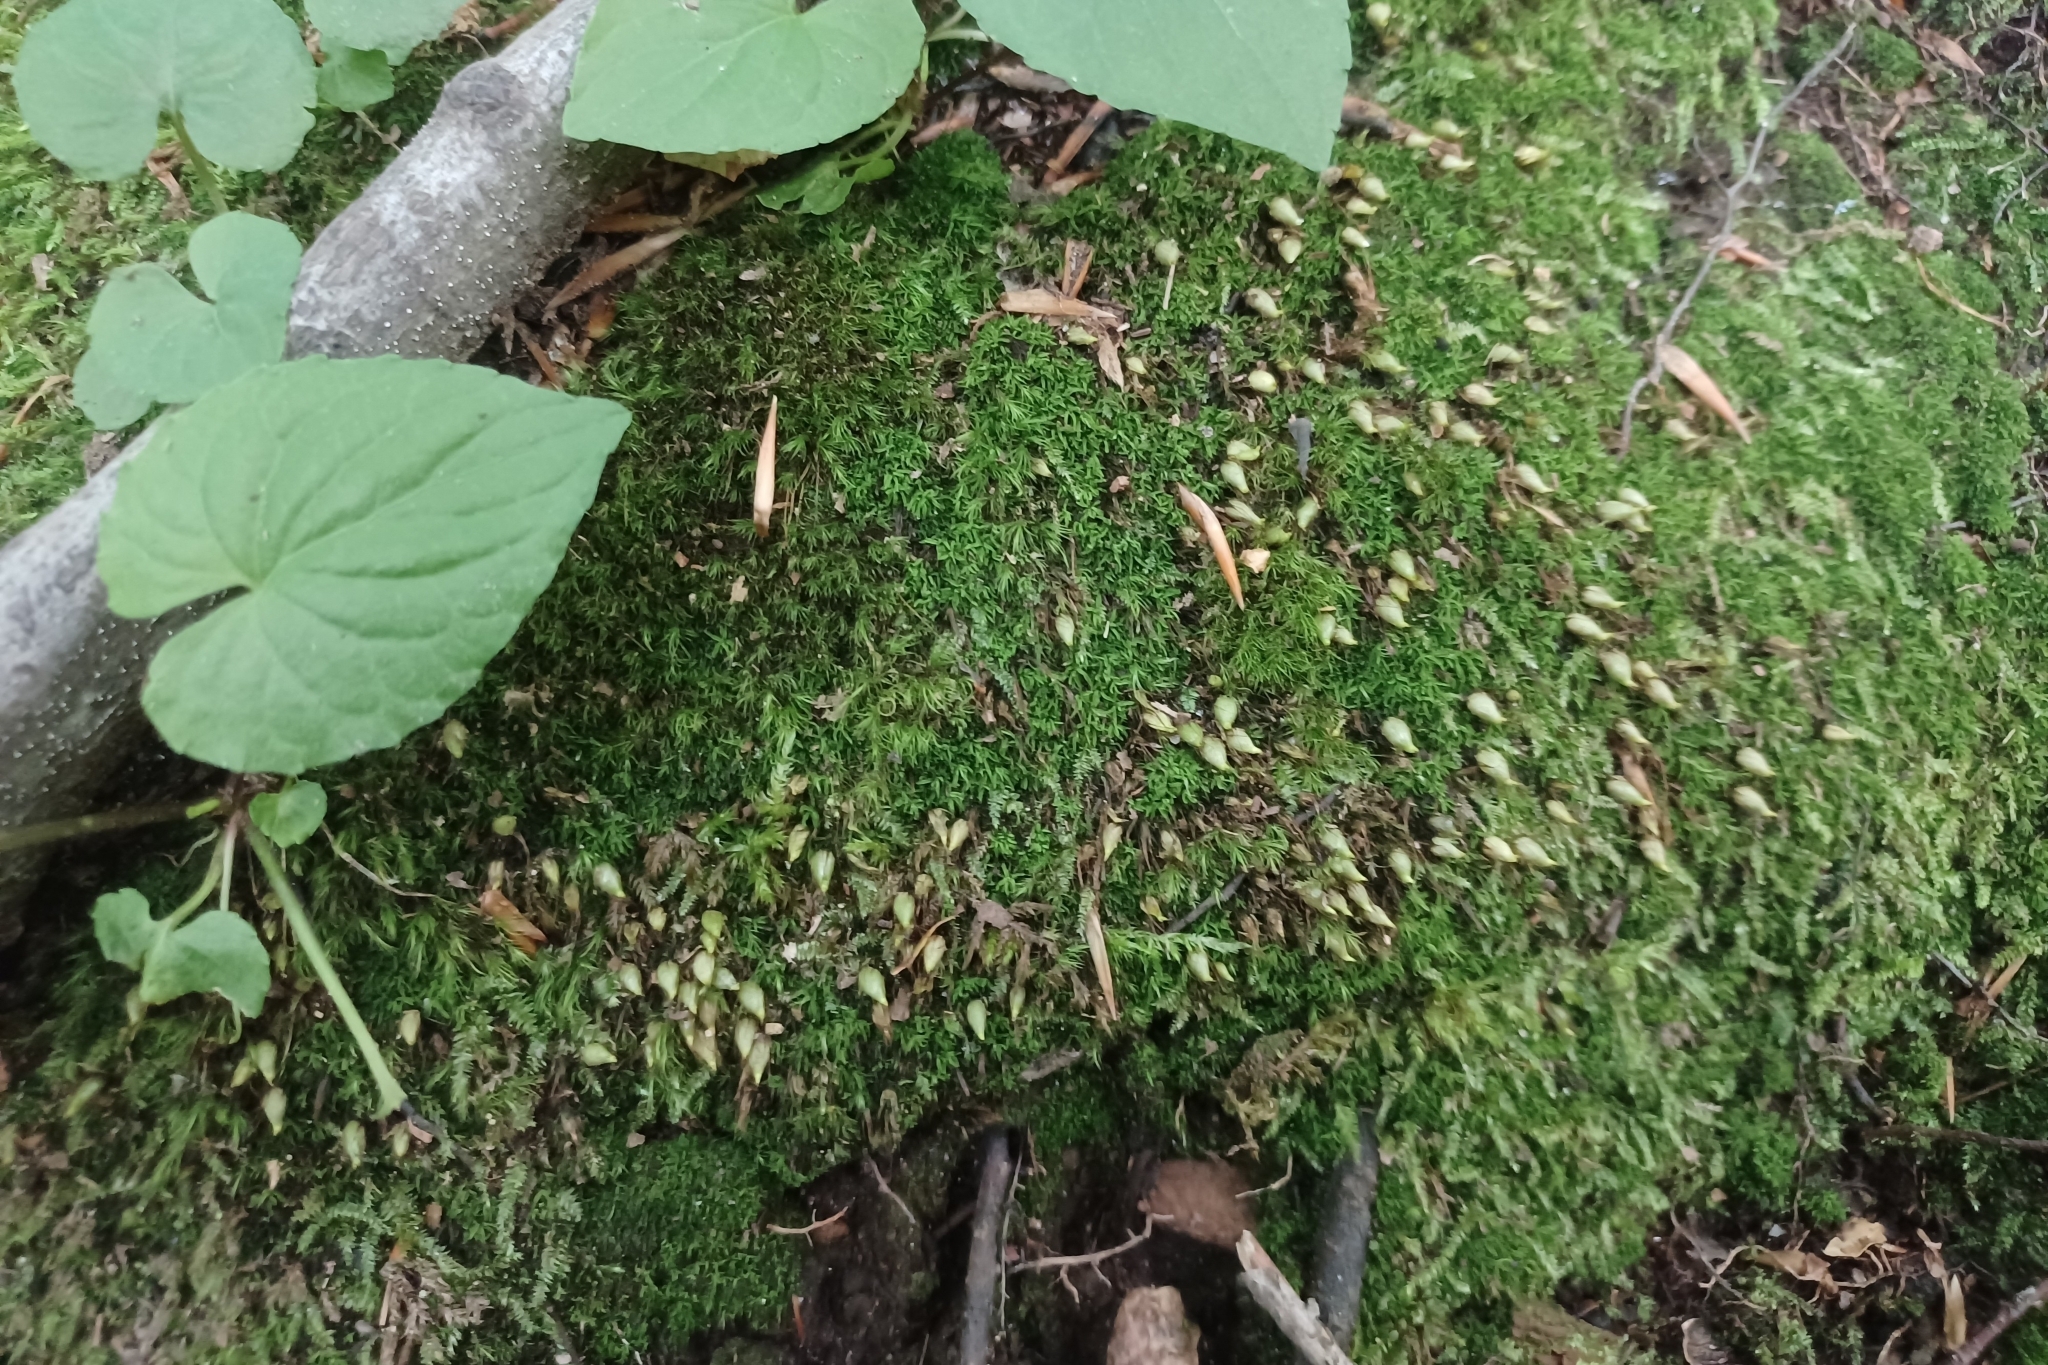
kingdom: Plantae
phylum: Bryophyta
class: Bryopsida
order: Diphysciales
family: Diphysciaceae
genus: Diphyscium
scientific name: Diphyscium foliosum
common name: Nut moss
